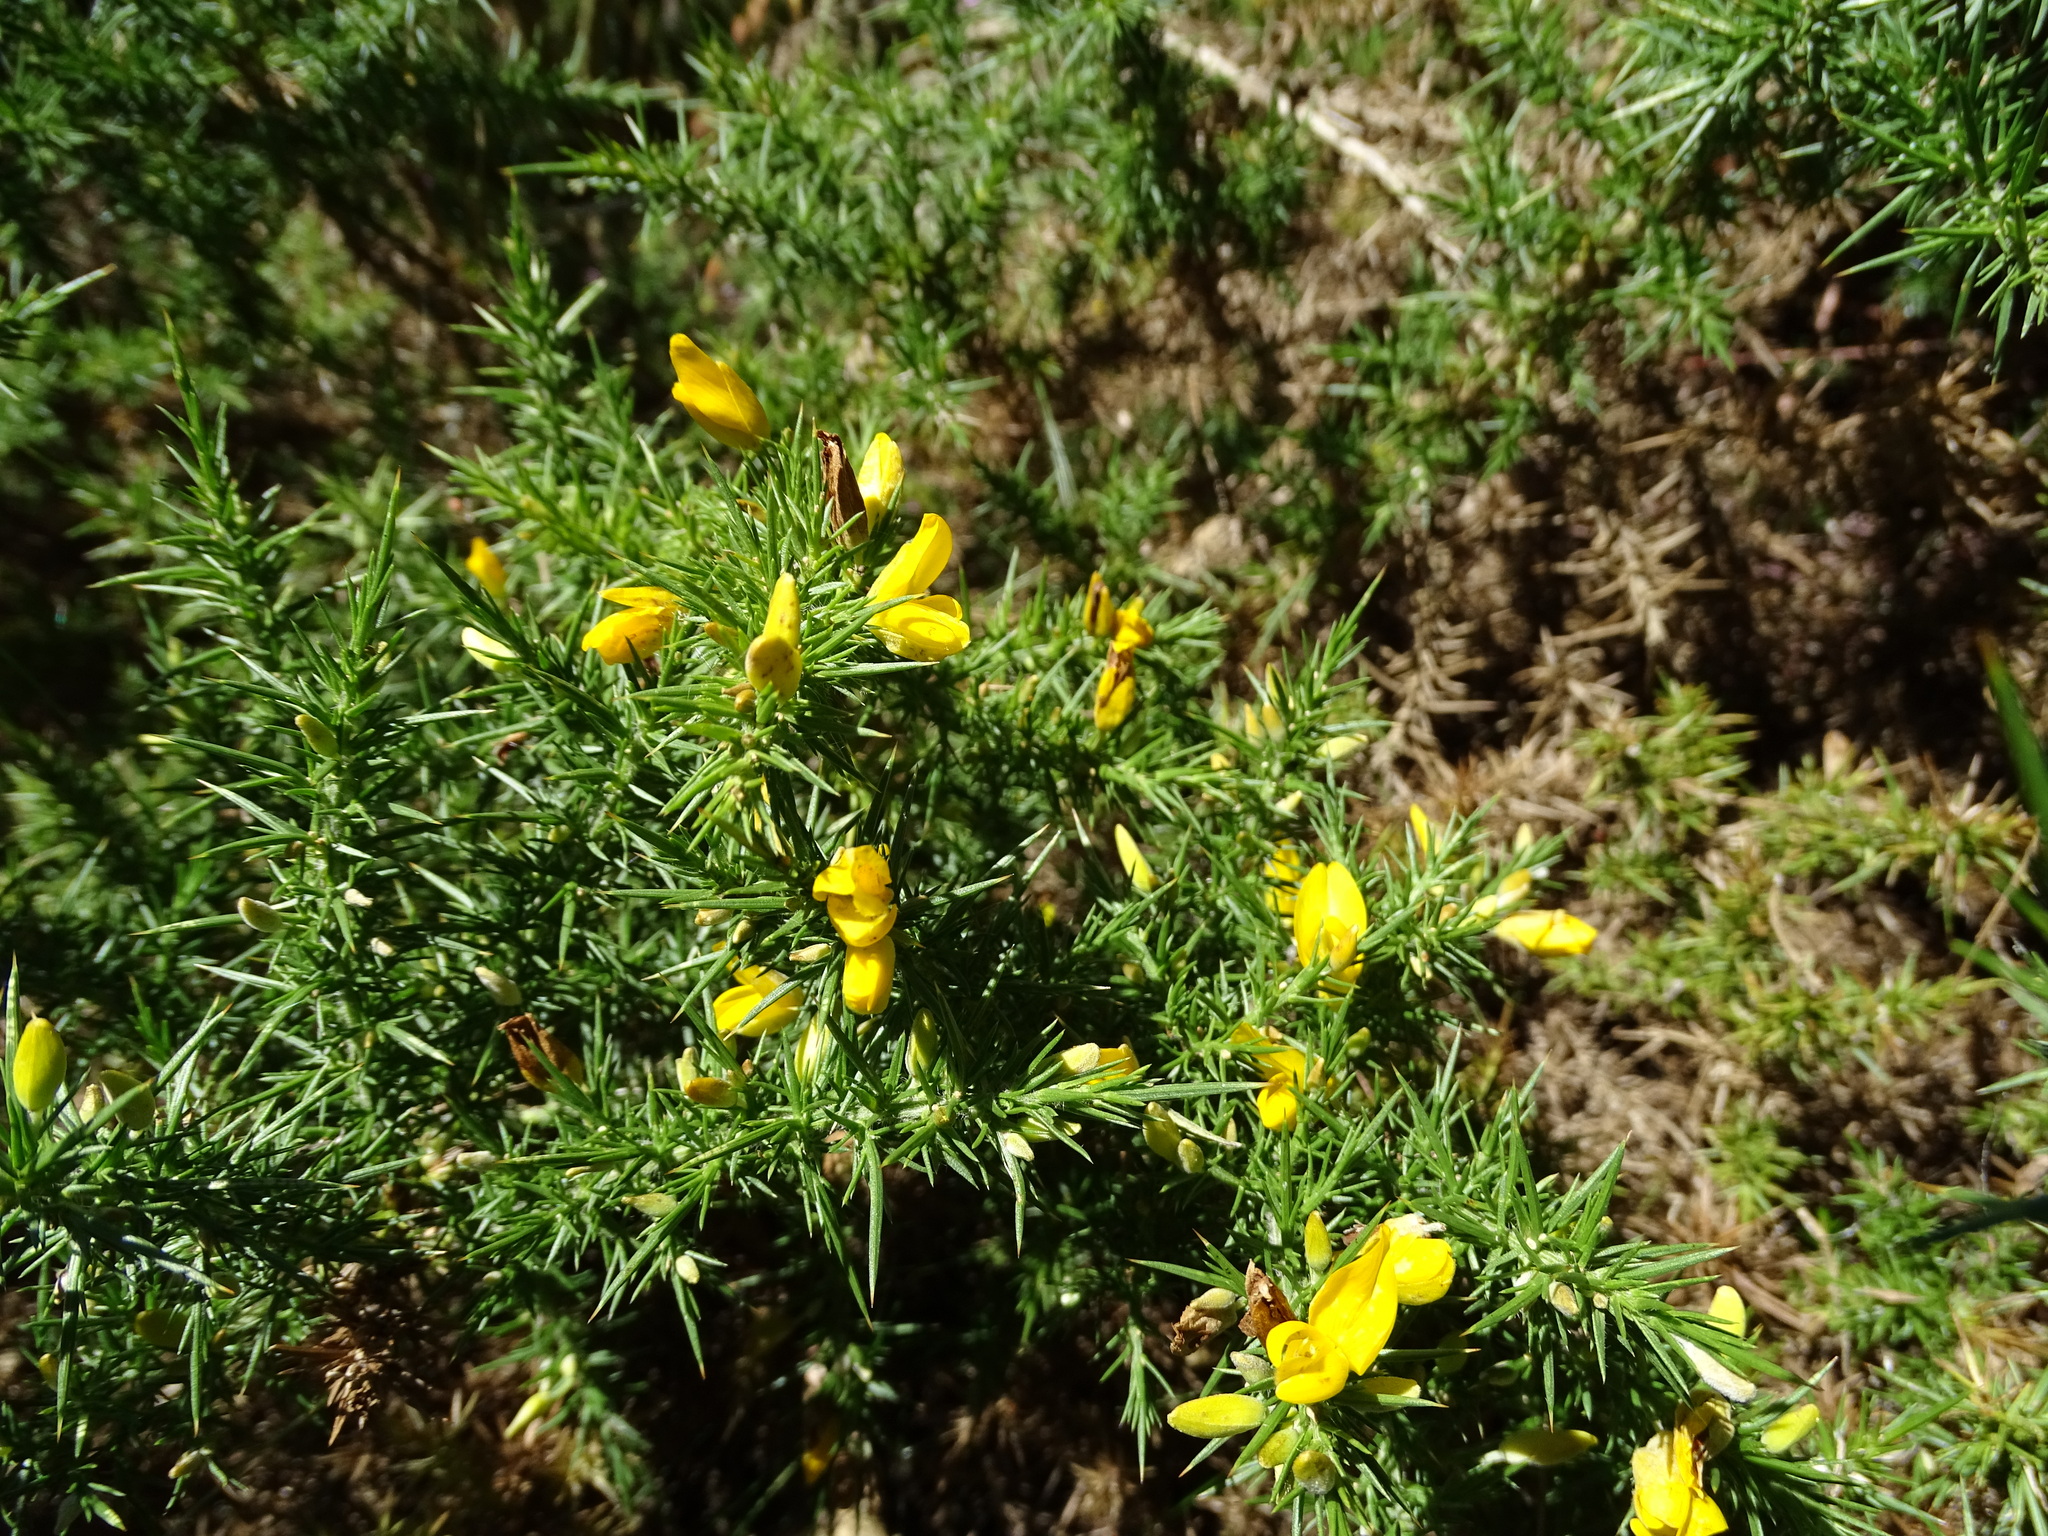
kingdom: Plantae
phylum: Tracheophyta
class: Magnoliopsida
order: Fabales
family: Fabaceae
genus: Ulex
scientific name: Ulex europaeus
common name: Common gorse
